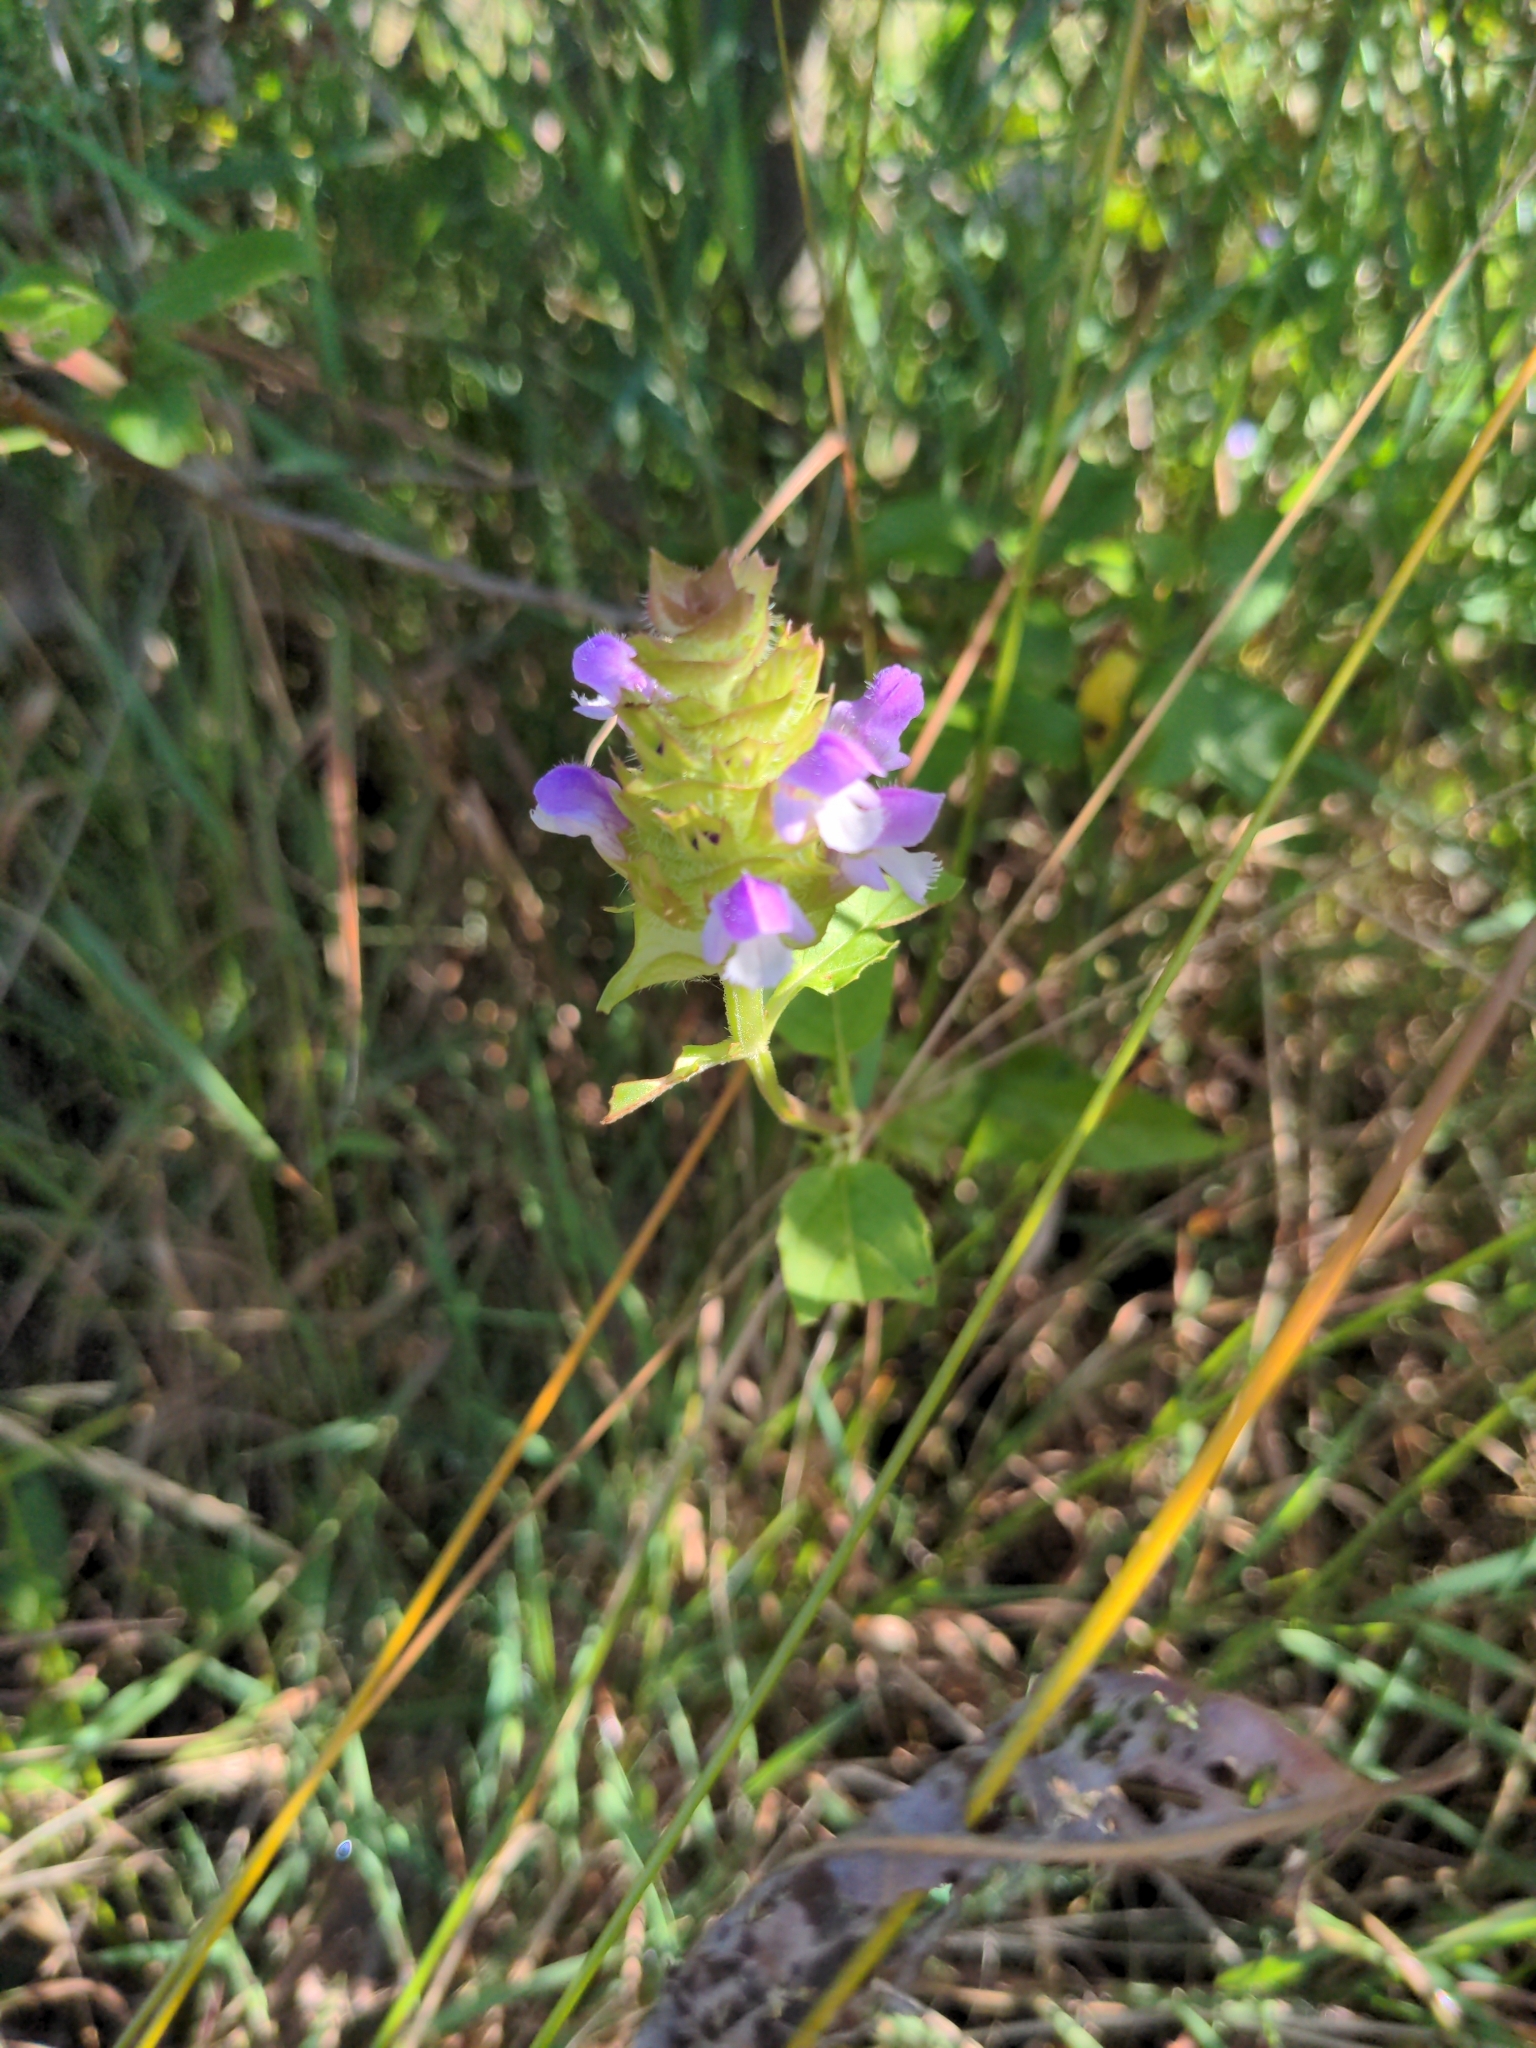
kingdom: Plantae
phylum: Tracheophyta
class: Magnoliopsida
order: Lamiales
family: Lamiaceae
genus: Prunella
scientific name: Prunella vulgaris
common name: Heal-all
